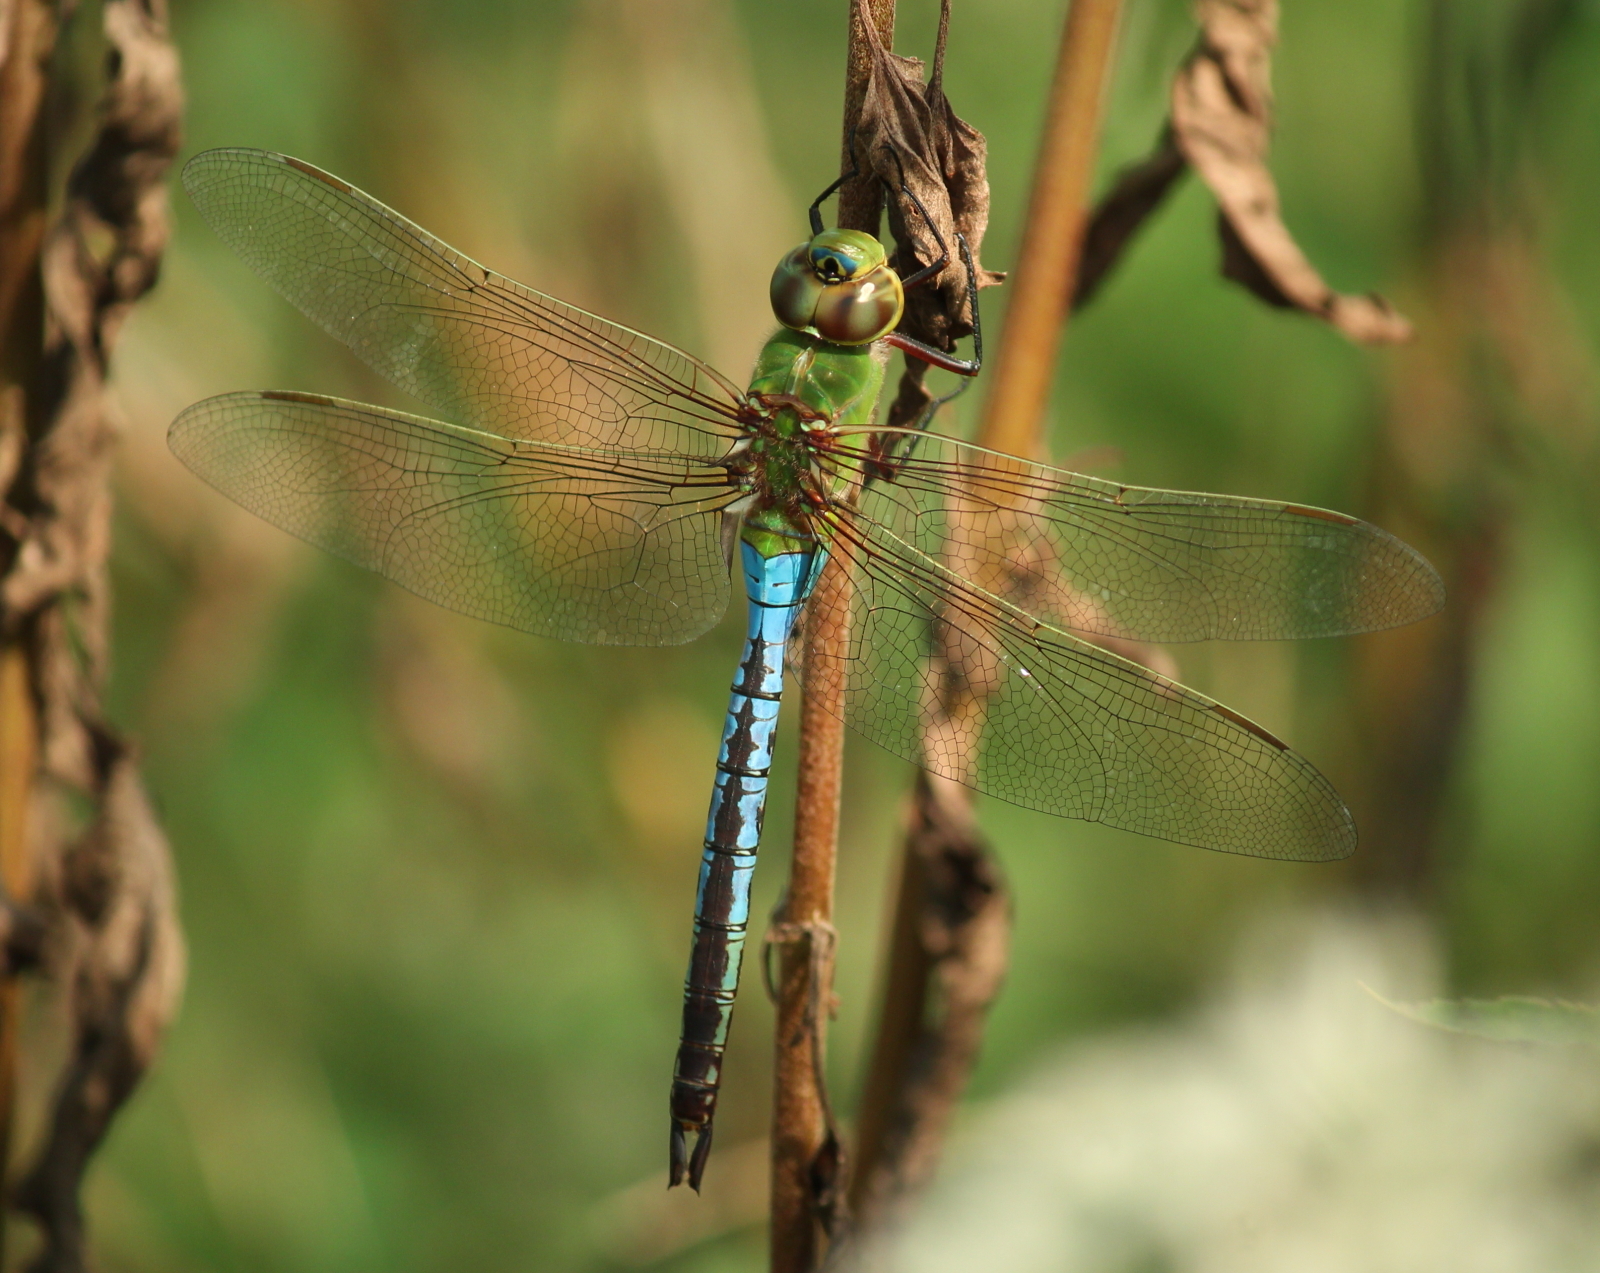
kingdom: Animalia
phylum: Arthropoda
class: Insecta
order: Odonata
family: Aeshnidae
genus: Anax
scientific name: Anax junius
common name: Common green darner
